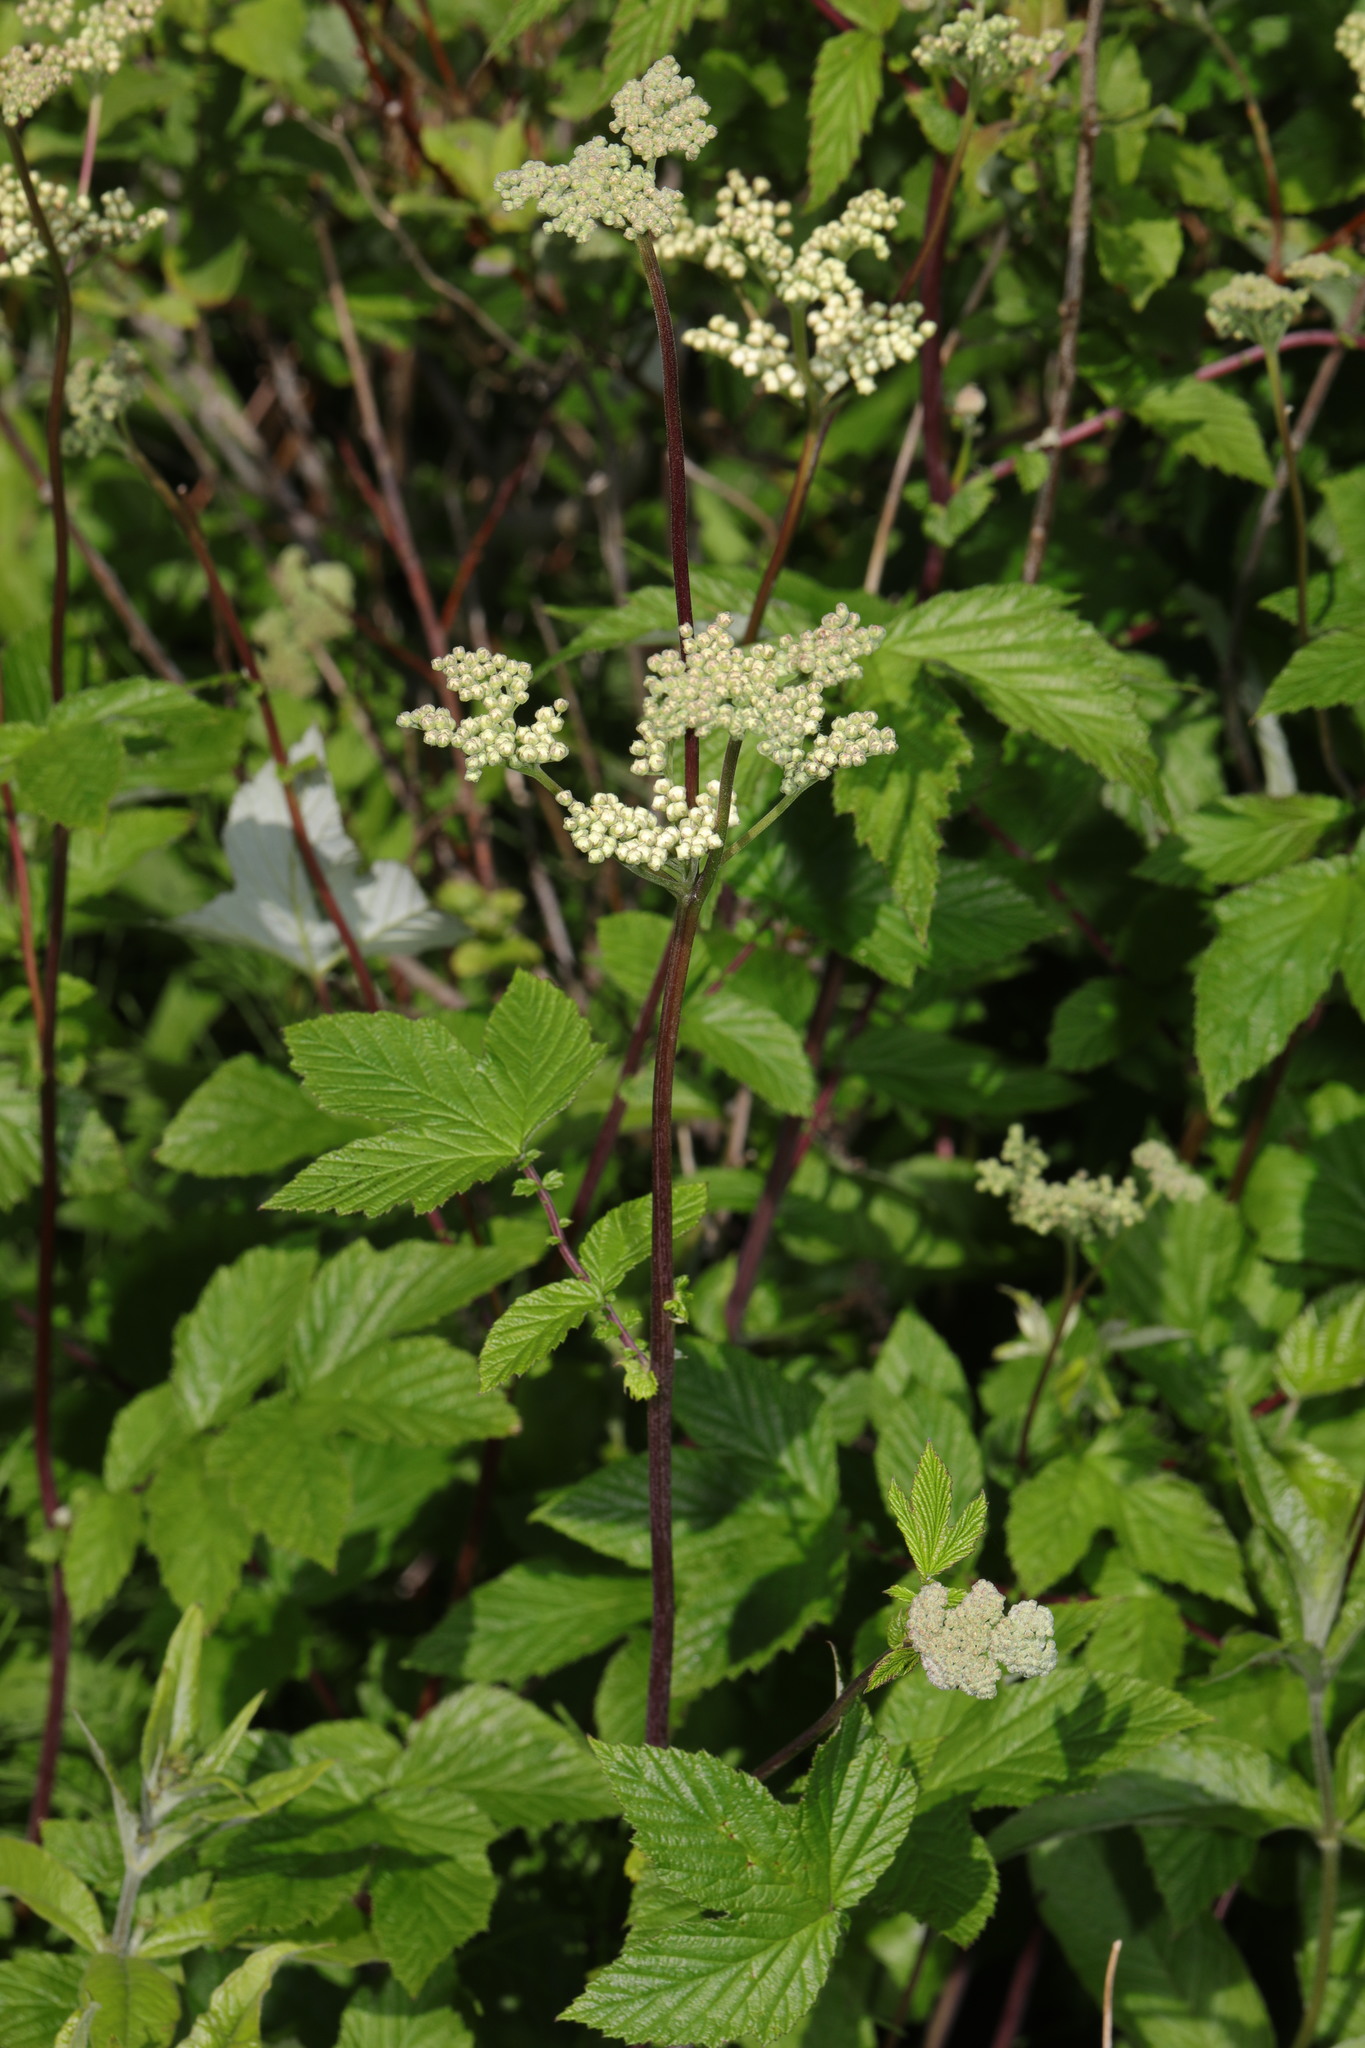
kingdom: Plantae
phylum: Tracheophyta
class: Magnoliopsida
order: Rosales
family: Rosaceae
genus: Filipendula
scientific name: Filipendula ulmaria
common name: Meadowsweet
